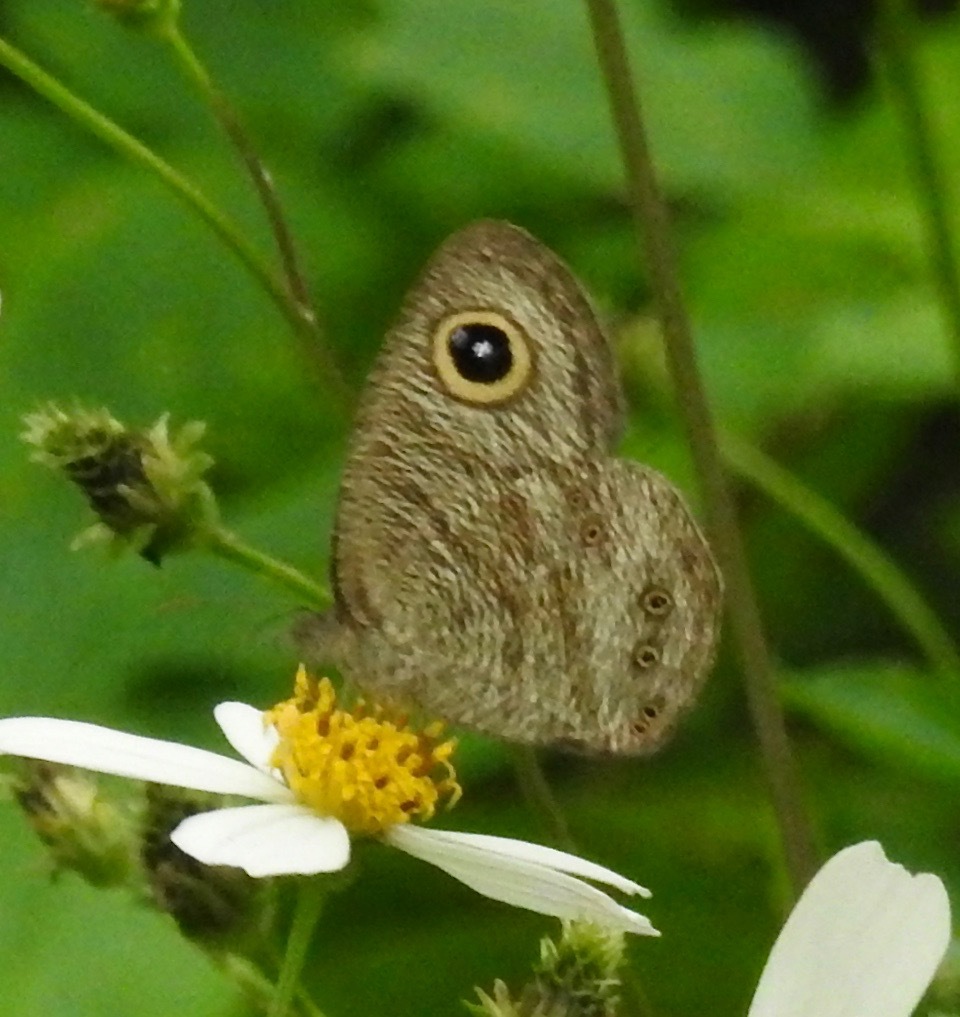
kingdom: Animalia
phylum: Arthropoda
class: Insecta
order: Lepidoptera
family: Nymphalidae
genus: Ypthima
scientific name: Ypthima baldus
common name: Common five-ring
